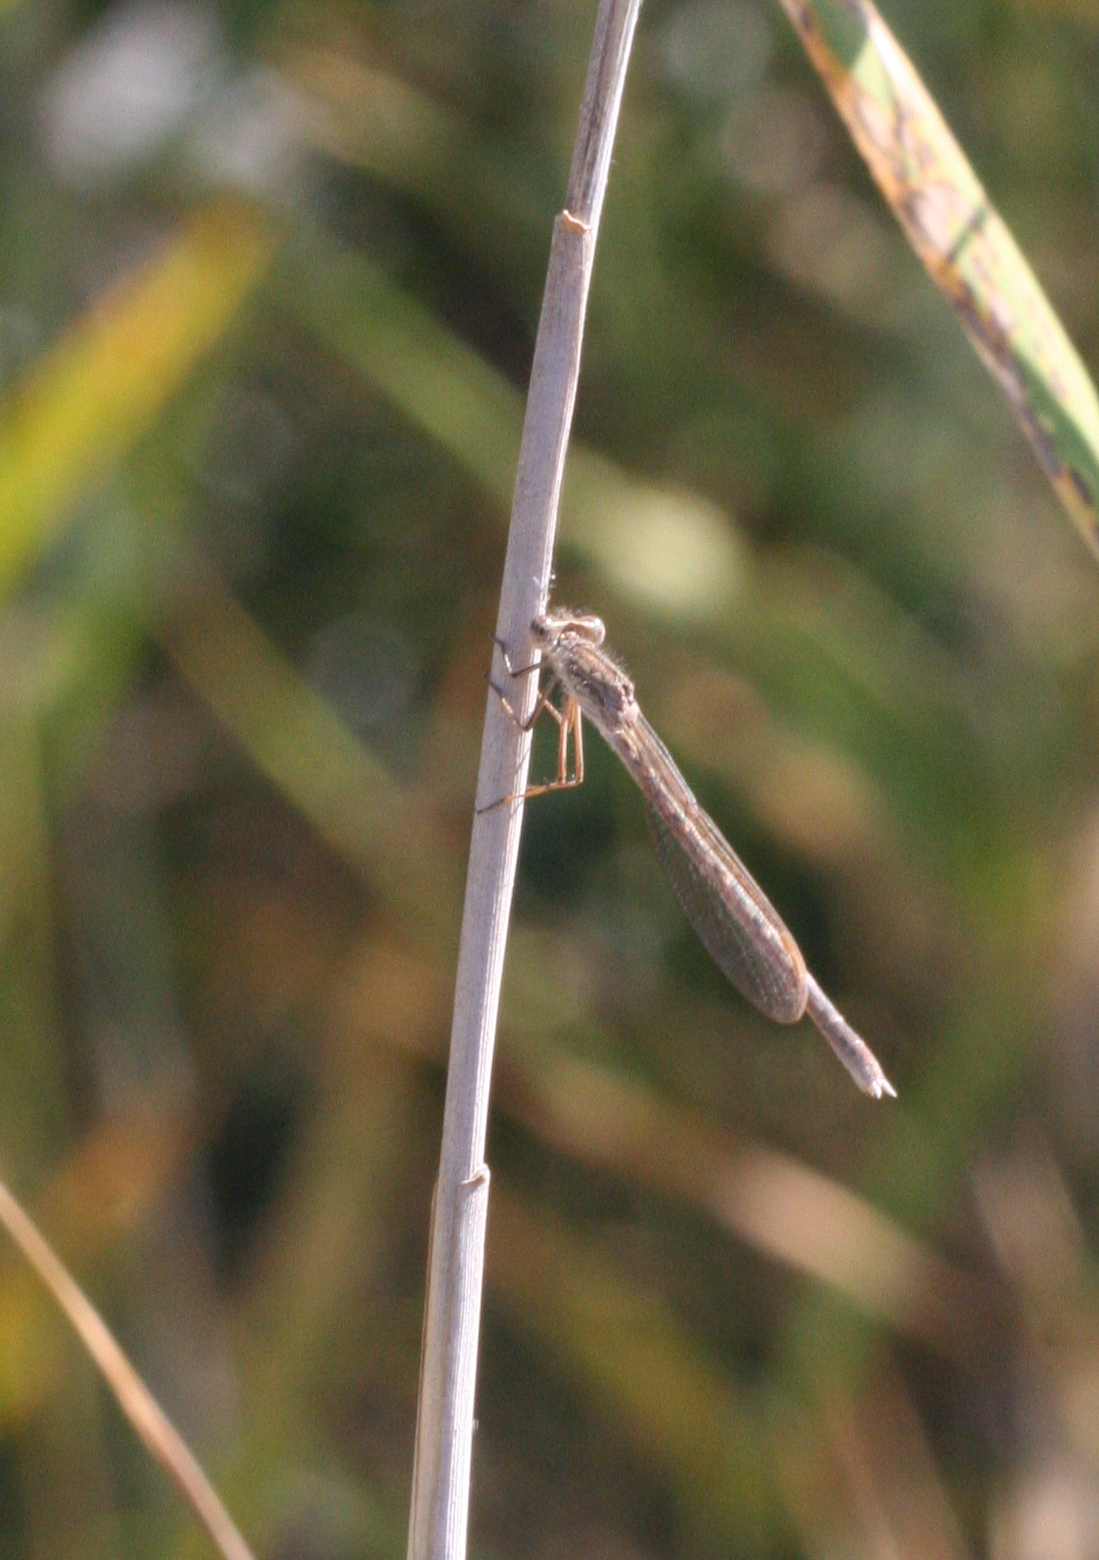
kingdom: Animalia
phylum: Arthropoda
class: Insecta
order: Odonata
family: Lestidae
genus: Sympecma
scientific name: Sympecma paedisca
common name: Siberian winter damsel
